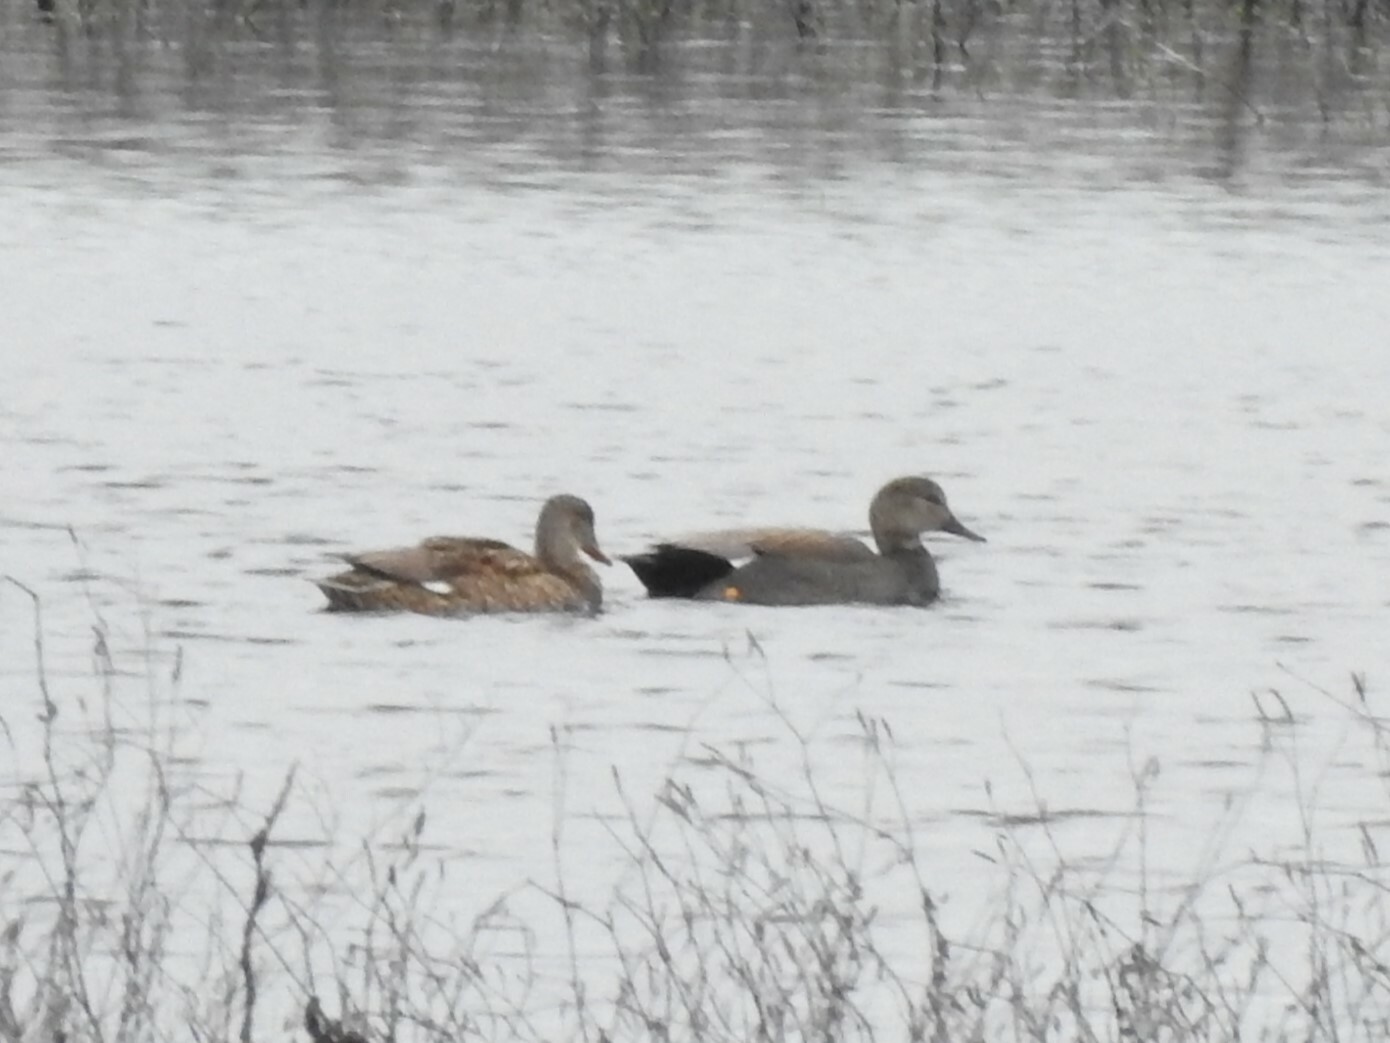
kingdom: Animalia
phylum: Chordata
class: Aves
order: Anseriformes
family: Anatidae
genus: Mareca
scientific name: Mareca strepera
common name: Gadwall
